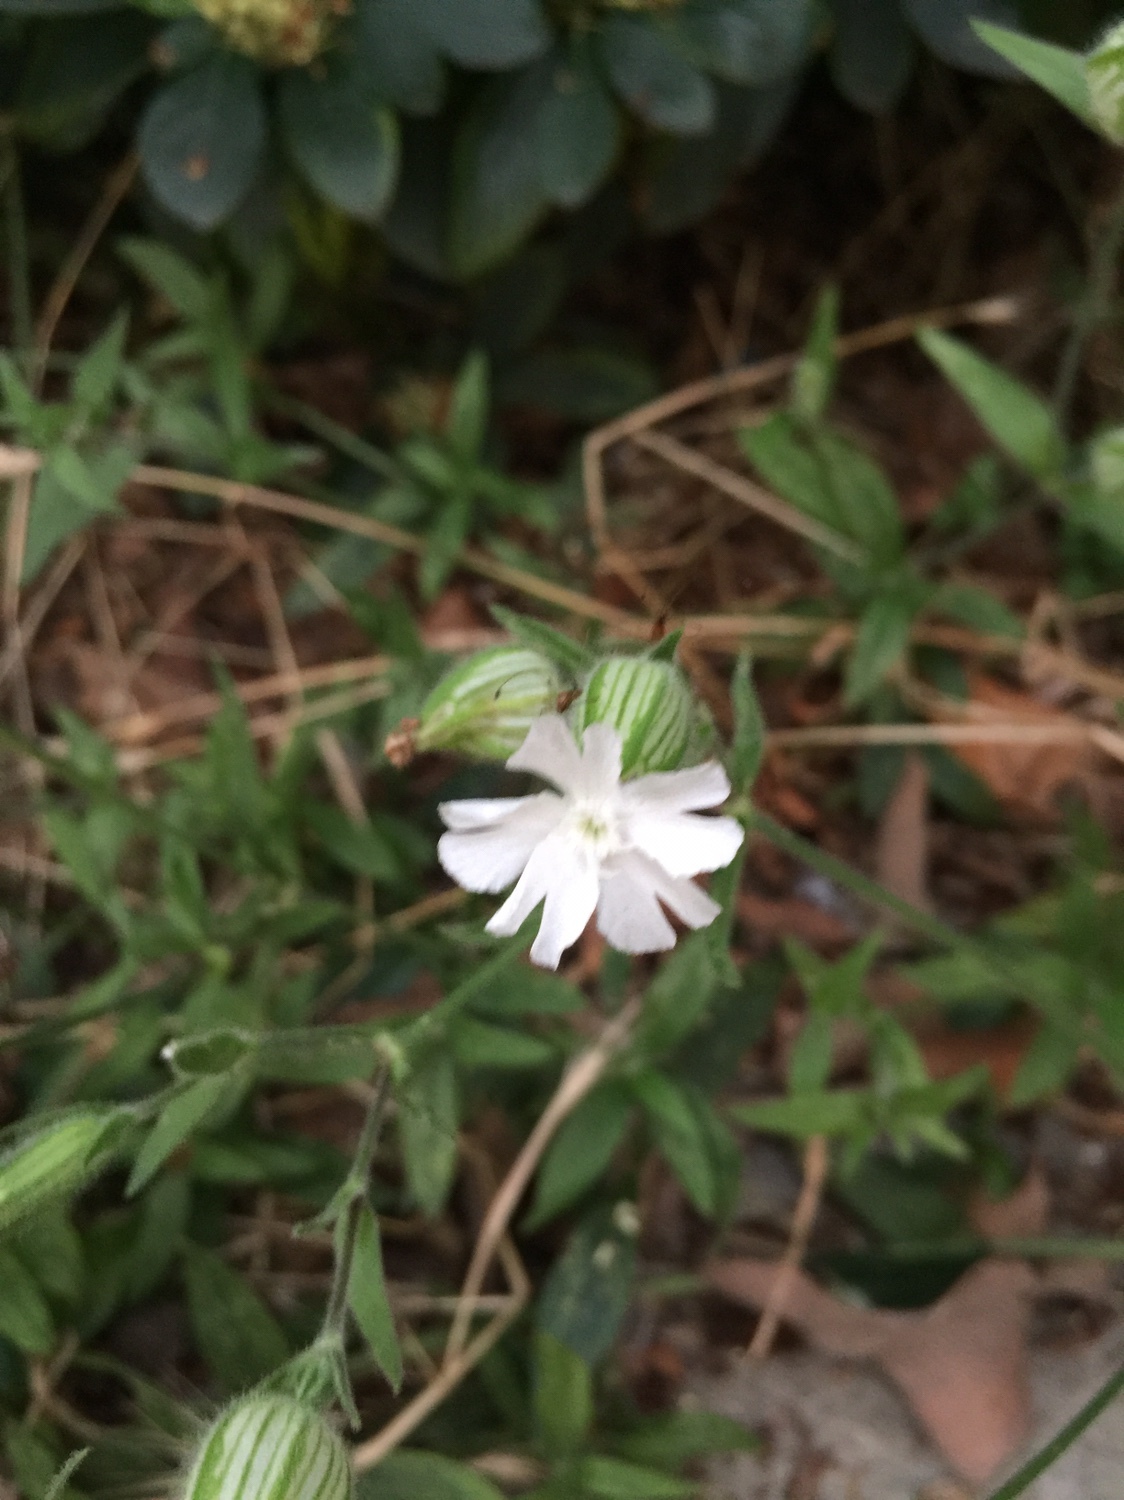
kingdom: Plantae
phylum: Tracheophyta
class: Magnoliopsida
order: Caryophyllales
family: Caryophyllaceae
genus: Silene
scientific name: Silene latifolia
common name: White campion
